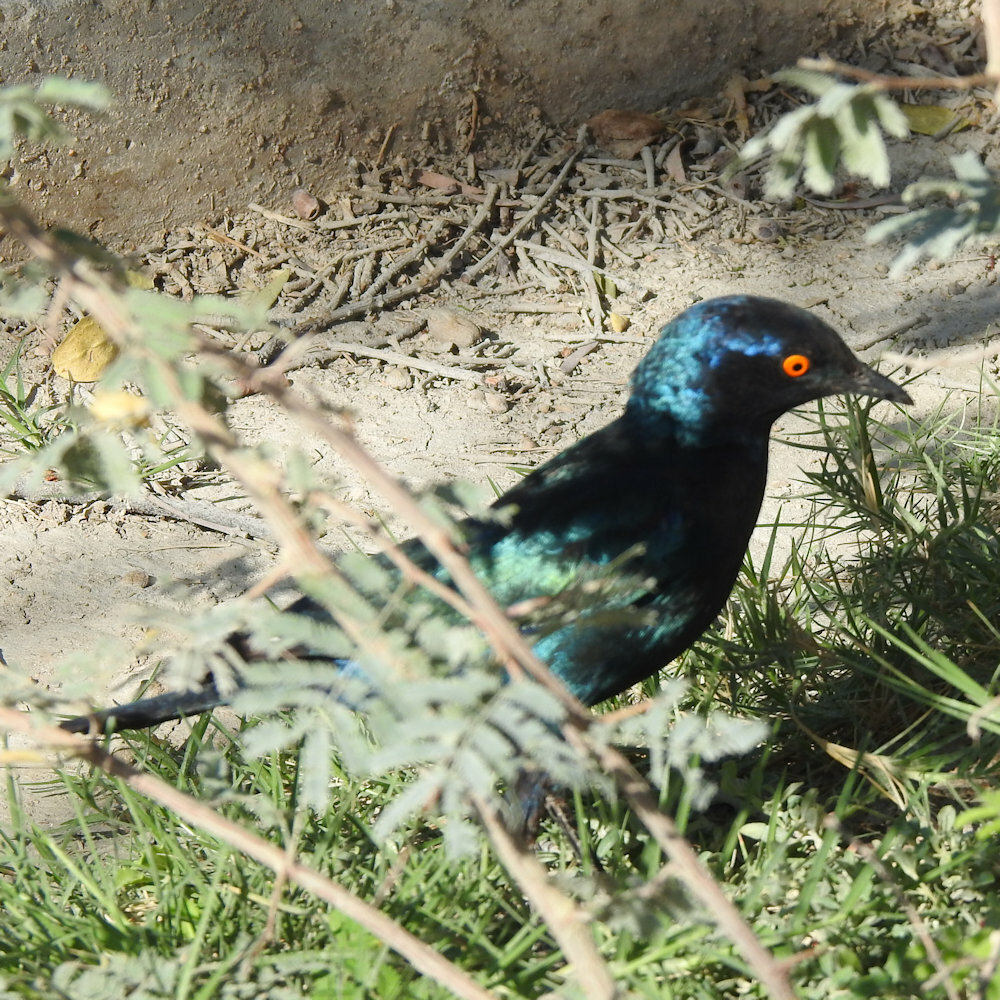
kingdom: Animalia
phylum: Chordata
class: Aves
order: Passeriformes
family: Sturnidae
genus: Lamprotornis
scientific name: Lamprotornis nitens
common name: Cape starling
